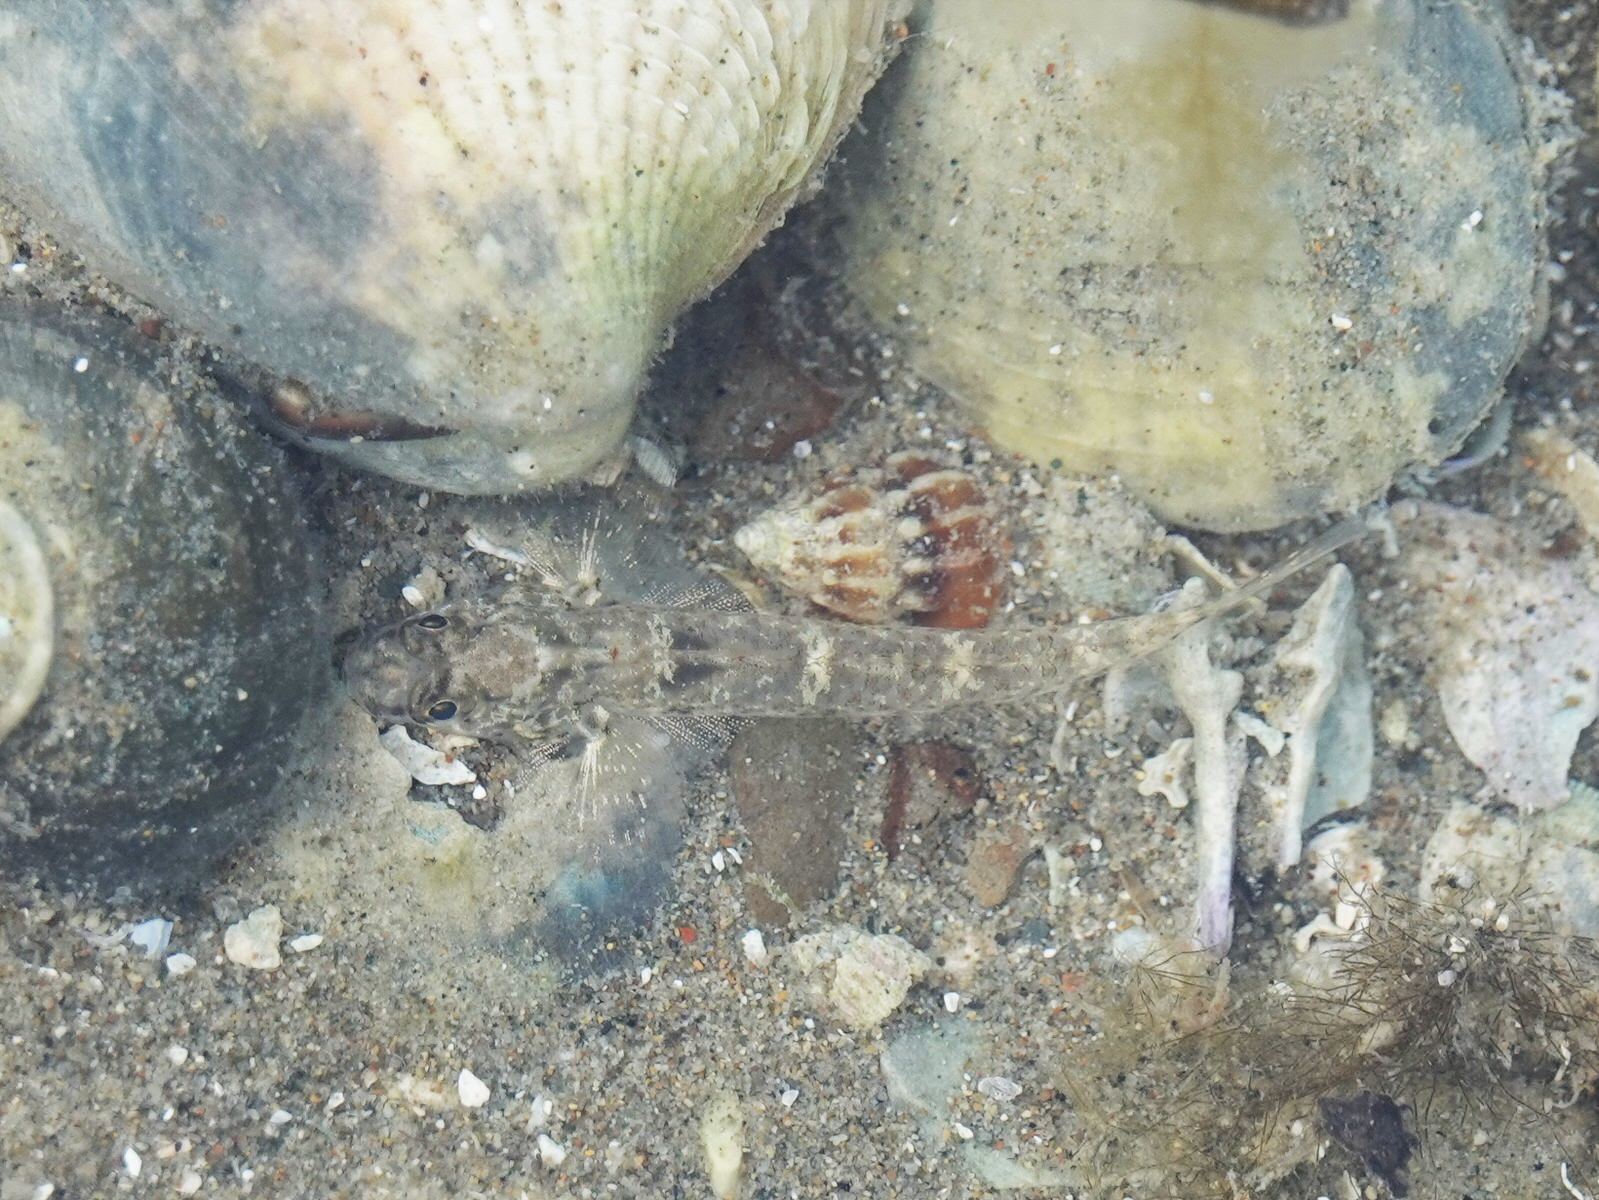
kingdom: Animalia
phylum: Chordata
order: Perciformes
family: Gobiidae
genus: Favonigobius
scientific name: Favonigobius exquisitus
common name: Exquisite sand-goby
